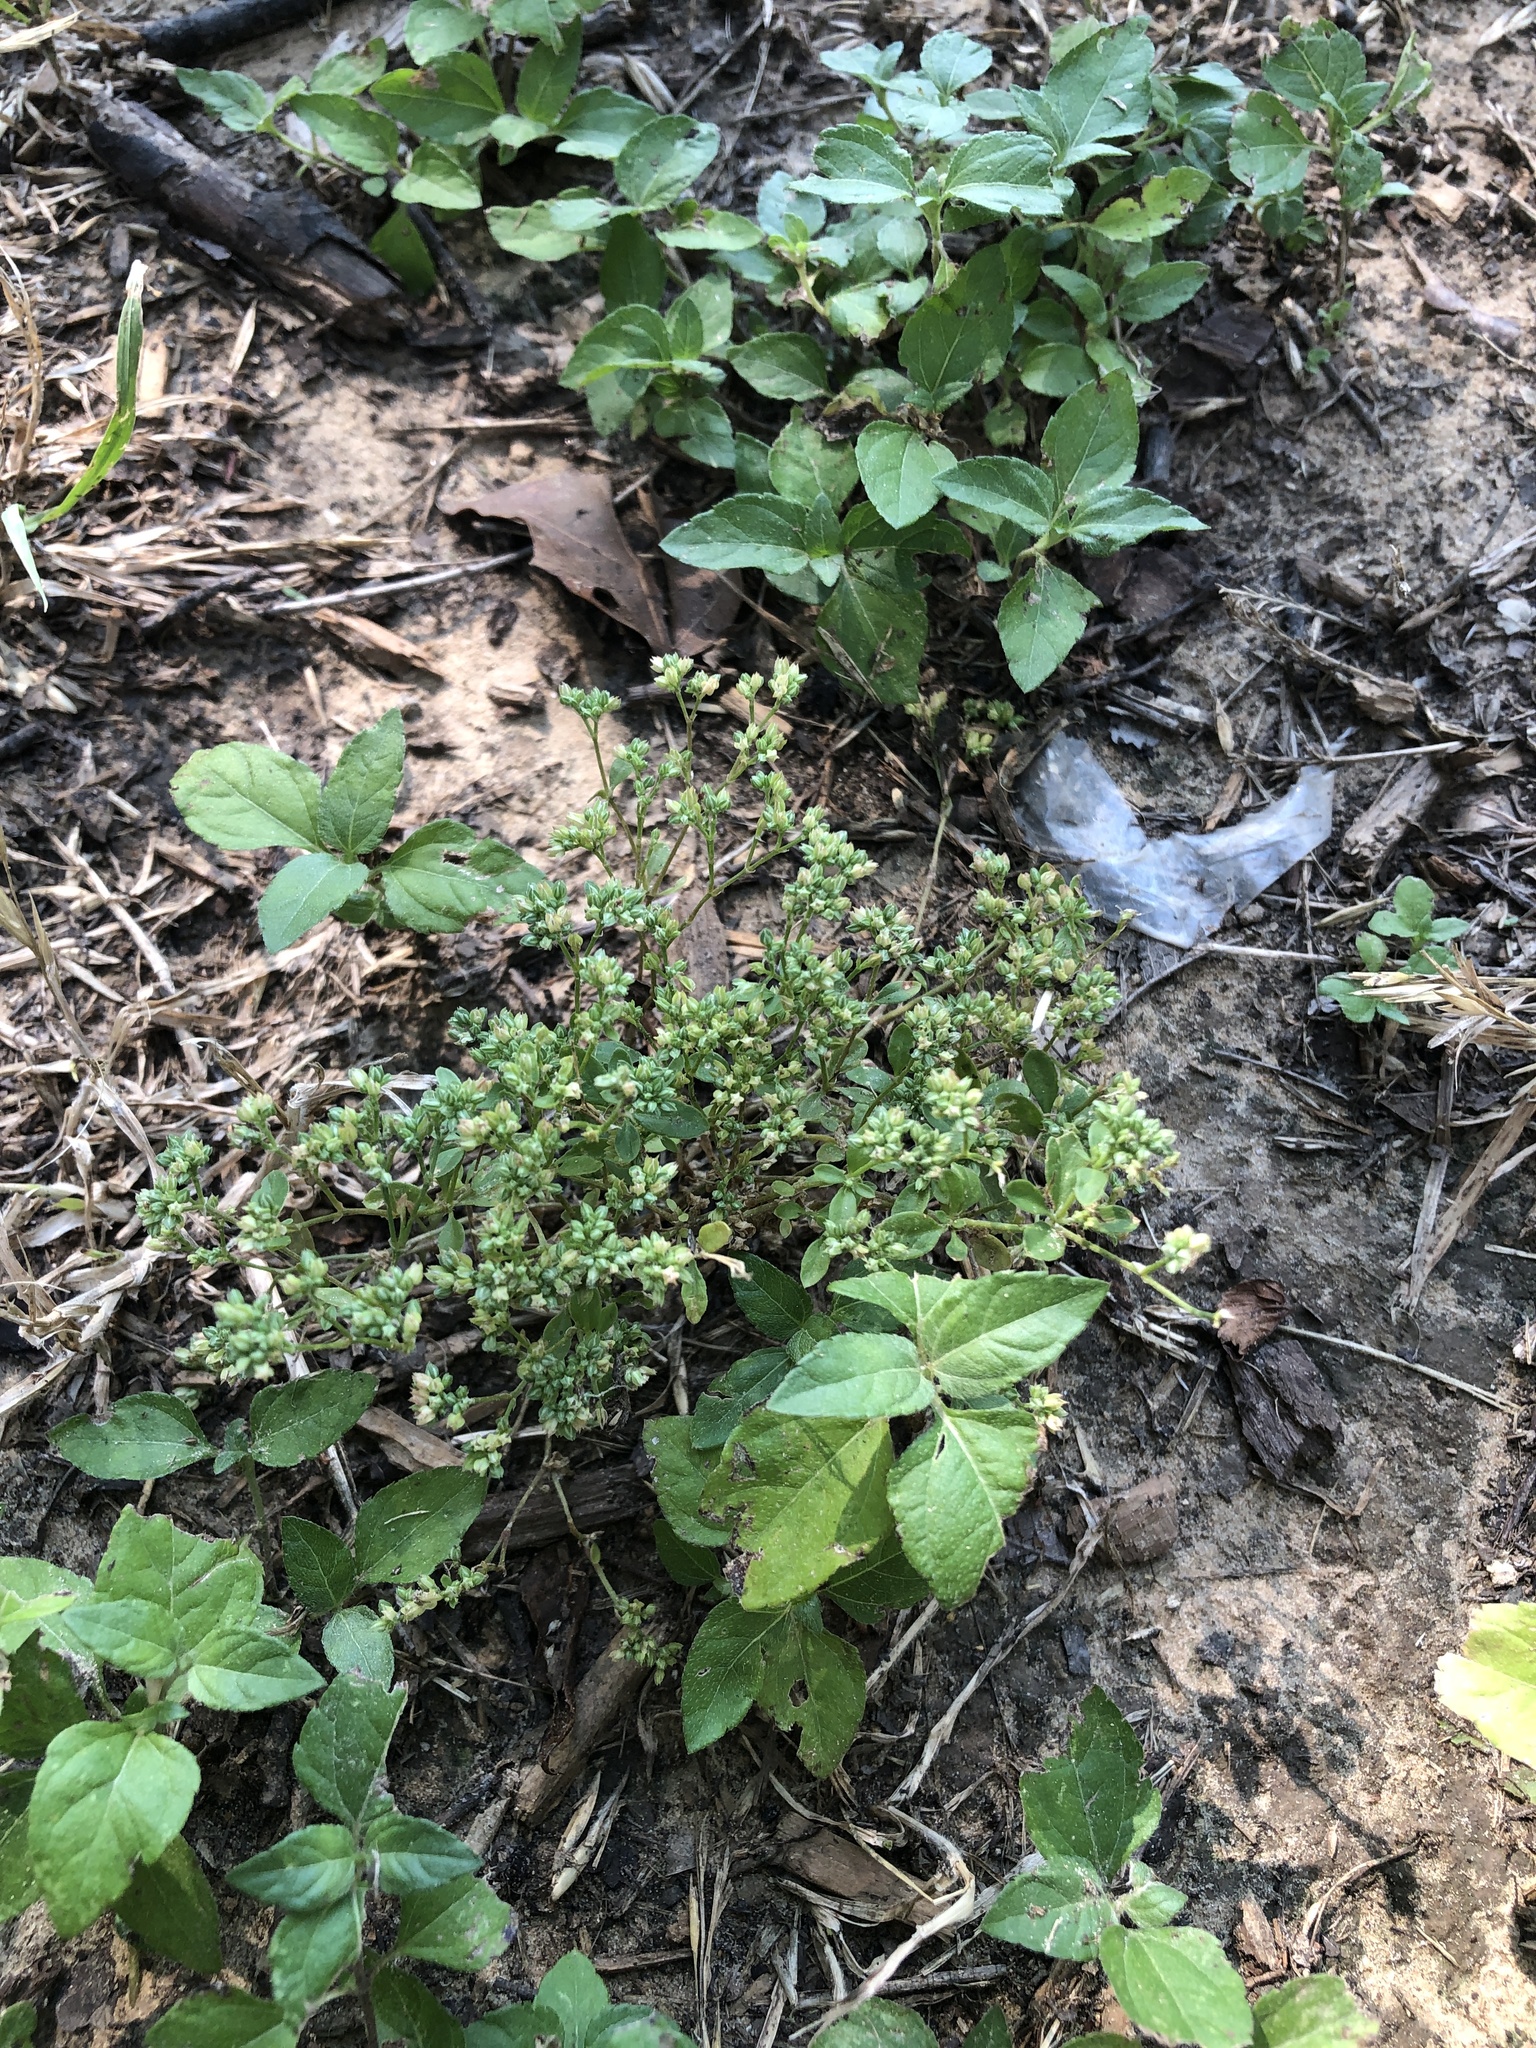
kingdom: Plantae
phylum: Tracheophyta
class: Magnoliopsida
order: Caryophyllales
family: Caryophyllaceae
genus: Polycarpon
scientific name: Polycarpon tetraphyllum
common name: Four-leaved all-seed
